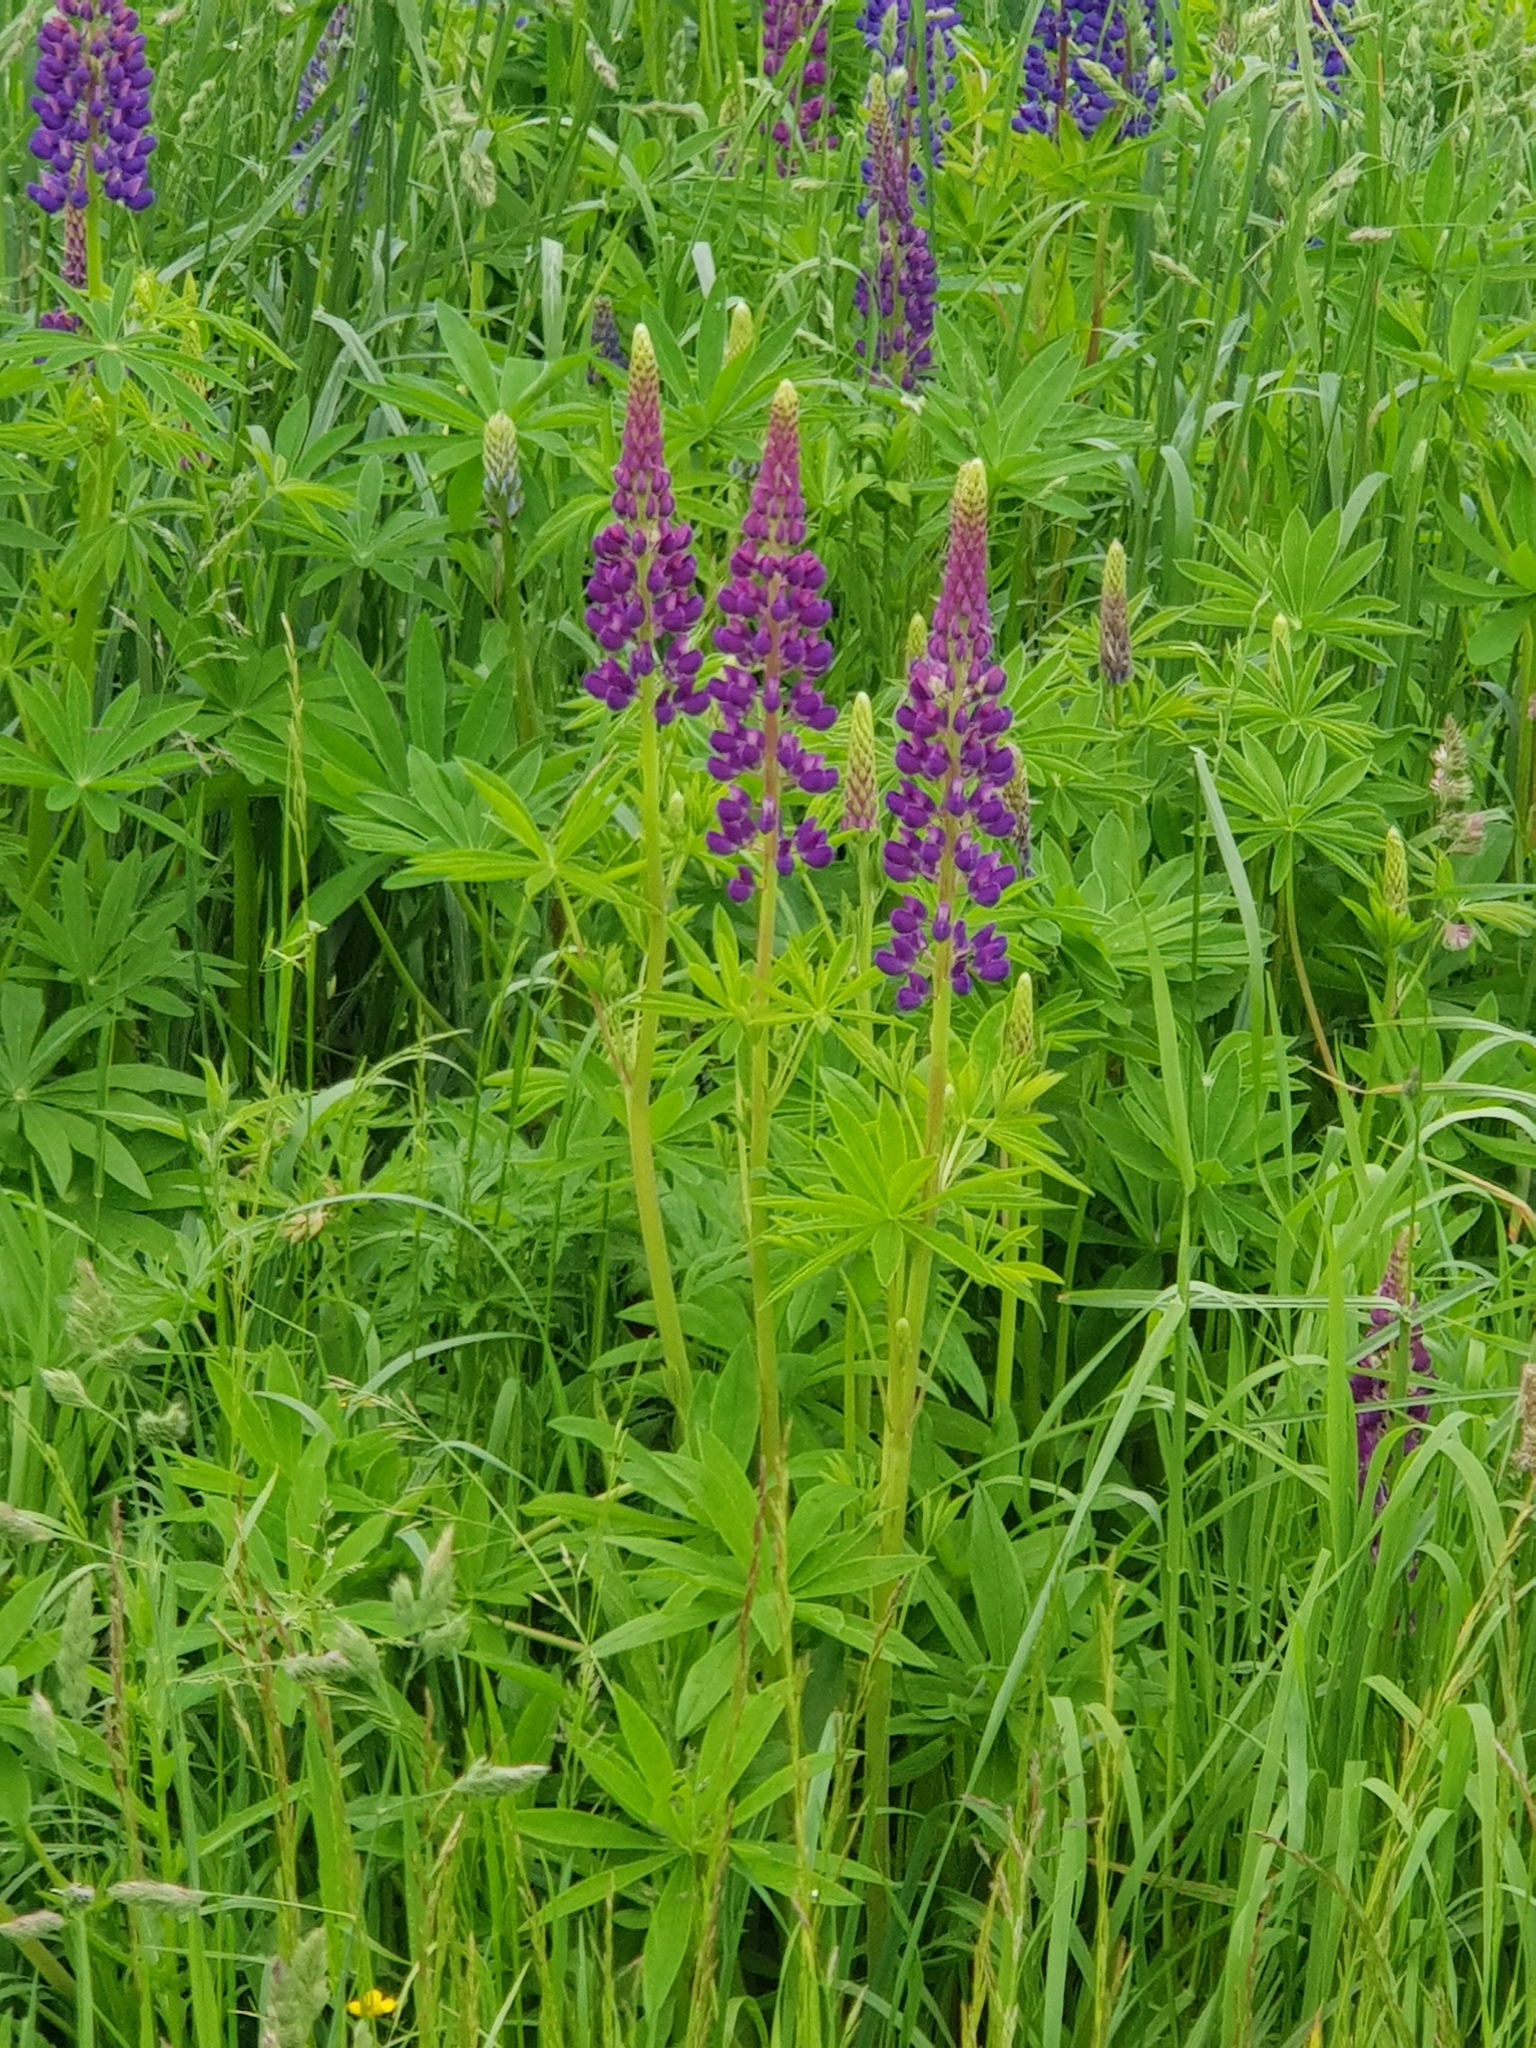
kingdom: Plantae
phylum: Tracheophyta
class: Magnoliopsida
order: Fabales
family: Fabaceae
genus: Lupinus
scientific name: Lupinus polyphyllus
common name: Garden lupin
